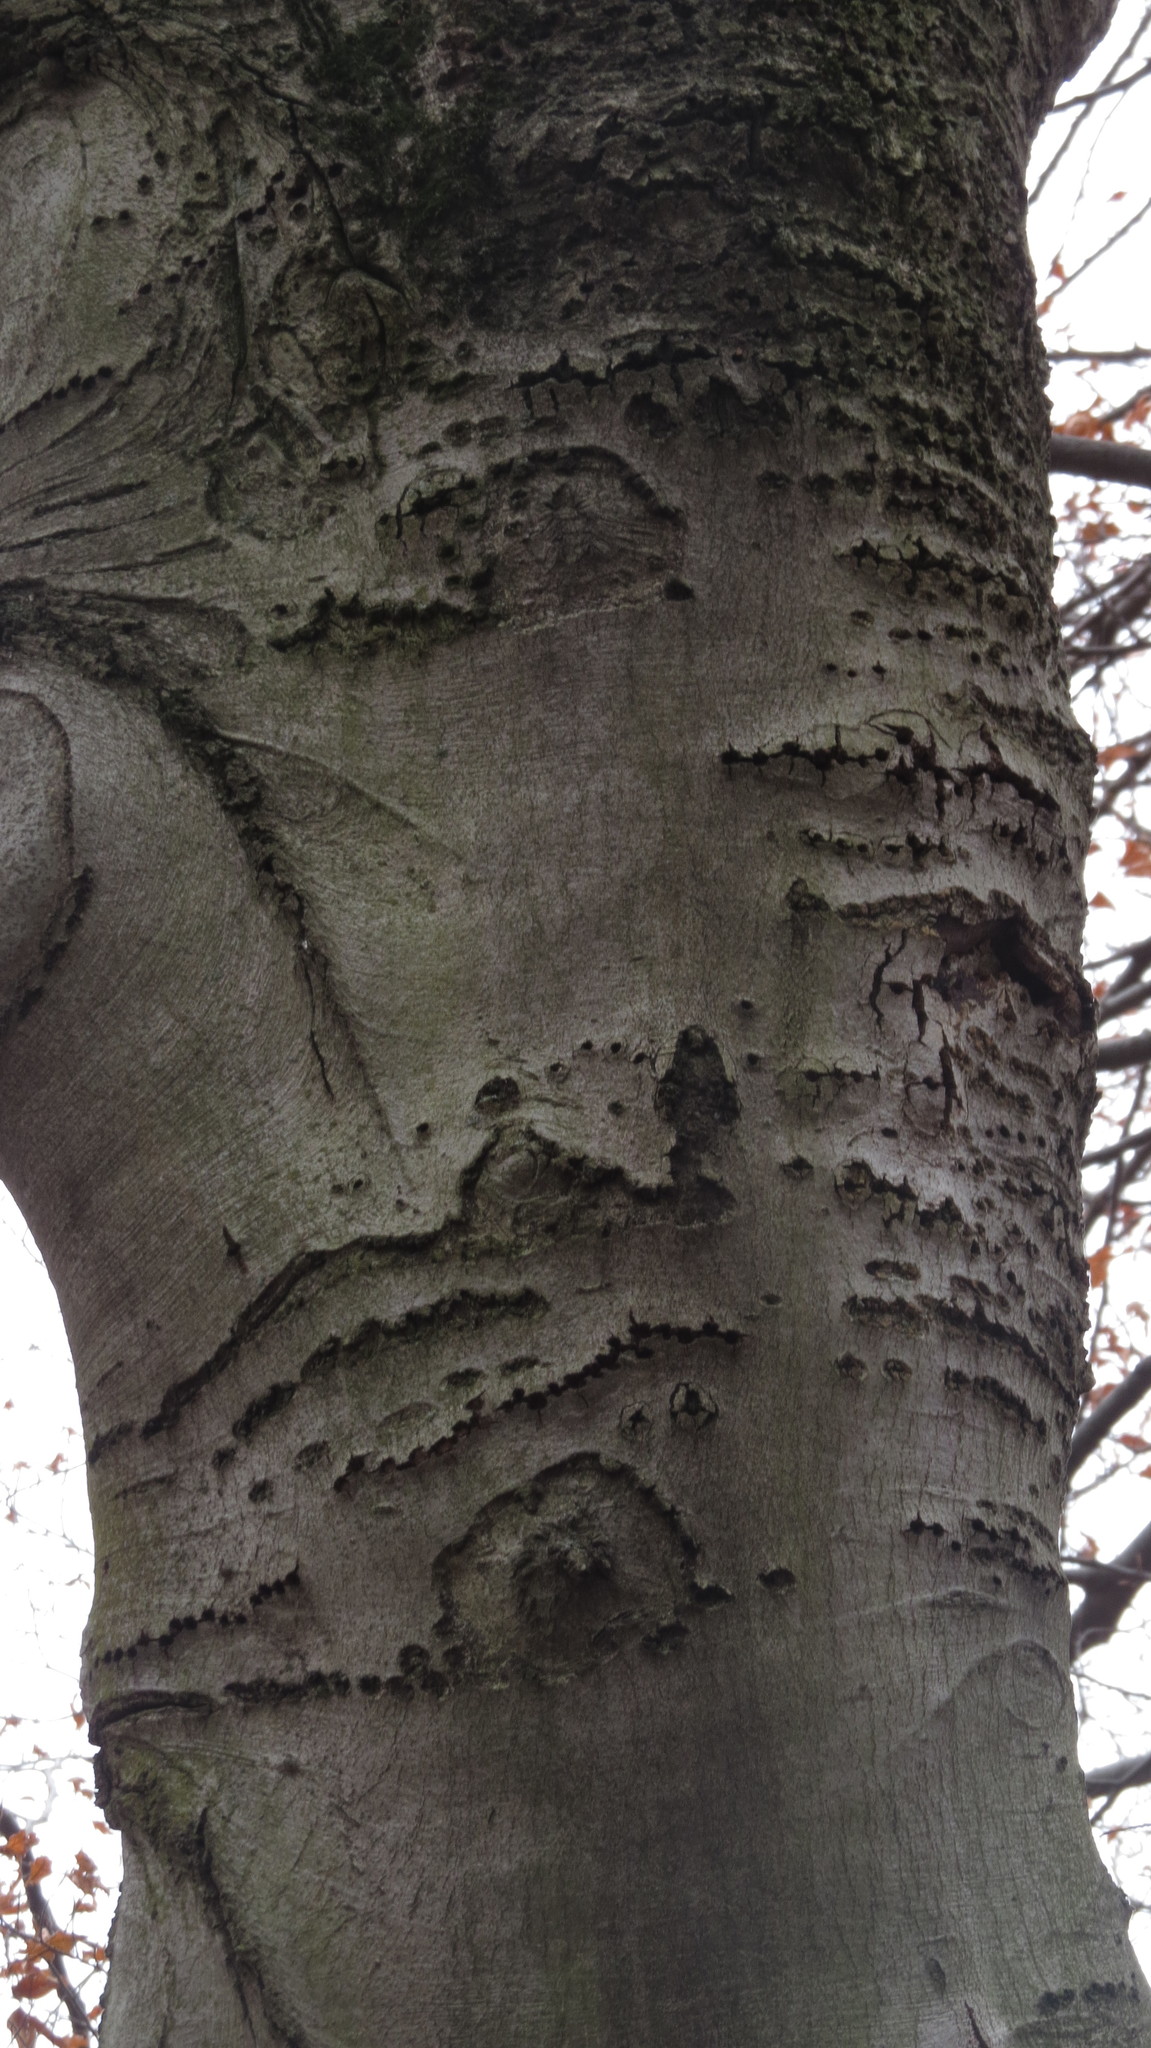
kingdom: Animalia
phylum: Chordata
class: Aves
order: Piciformes
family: Picidae
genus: Sphyrapicus
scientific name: Sphyrapicus varius
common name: Yellow-bellied sapsucker
